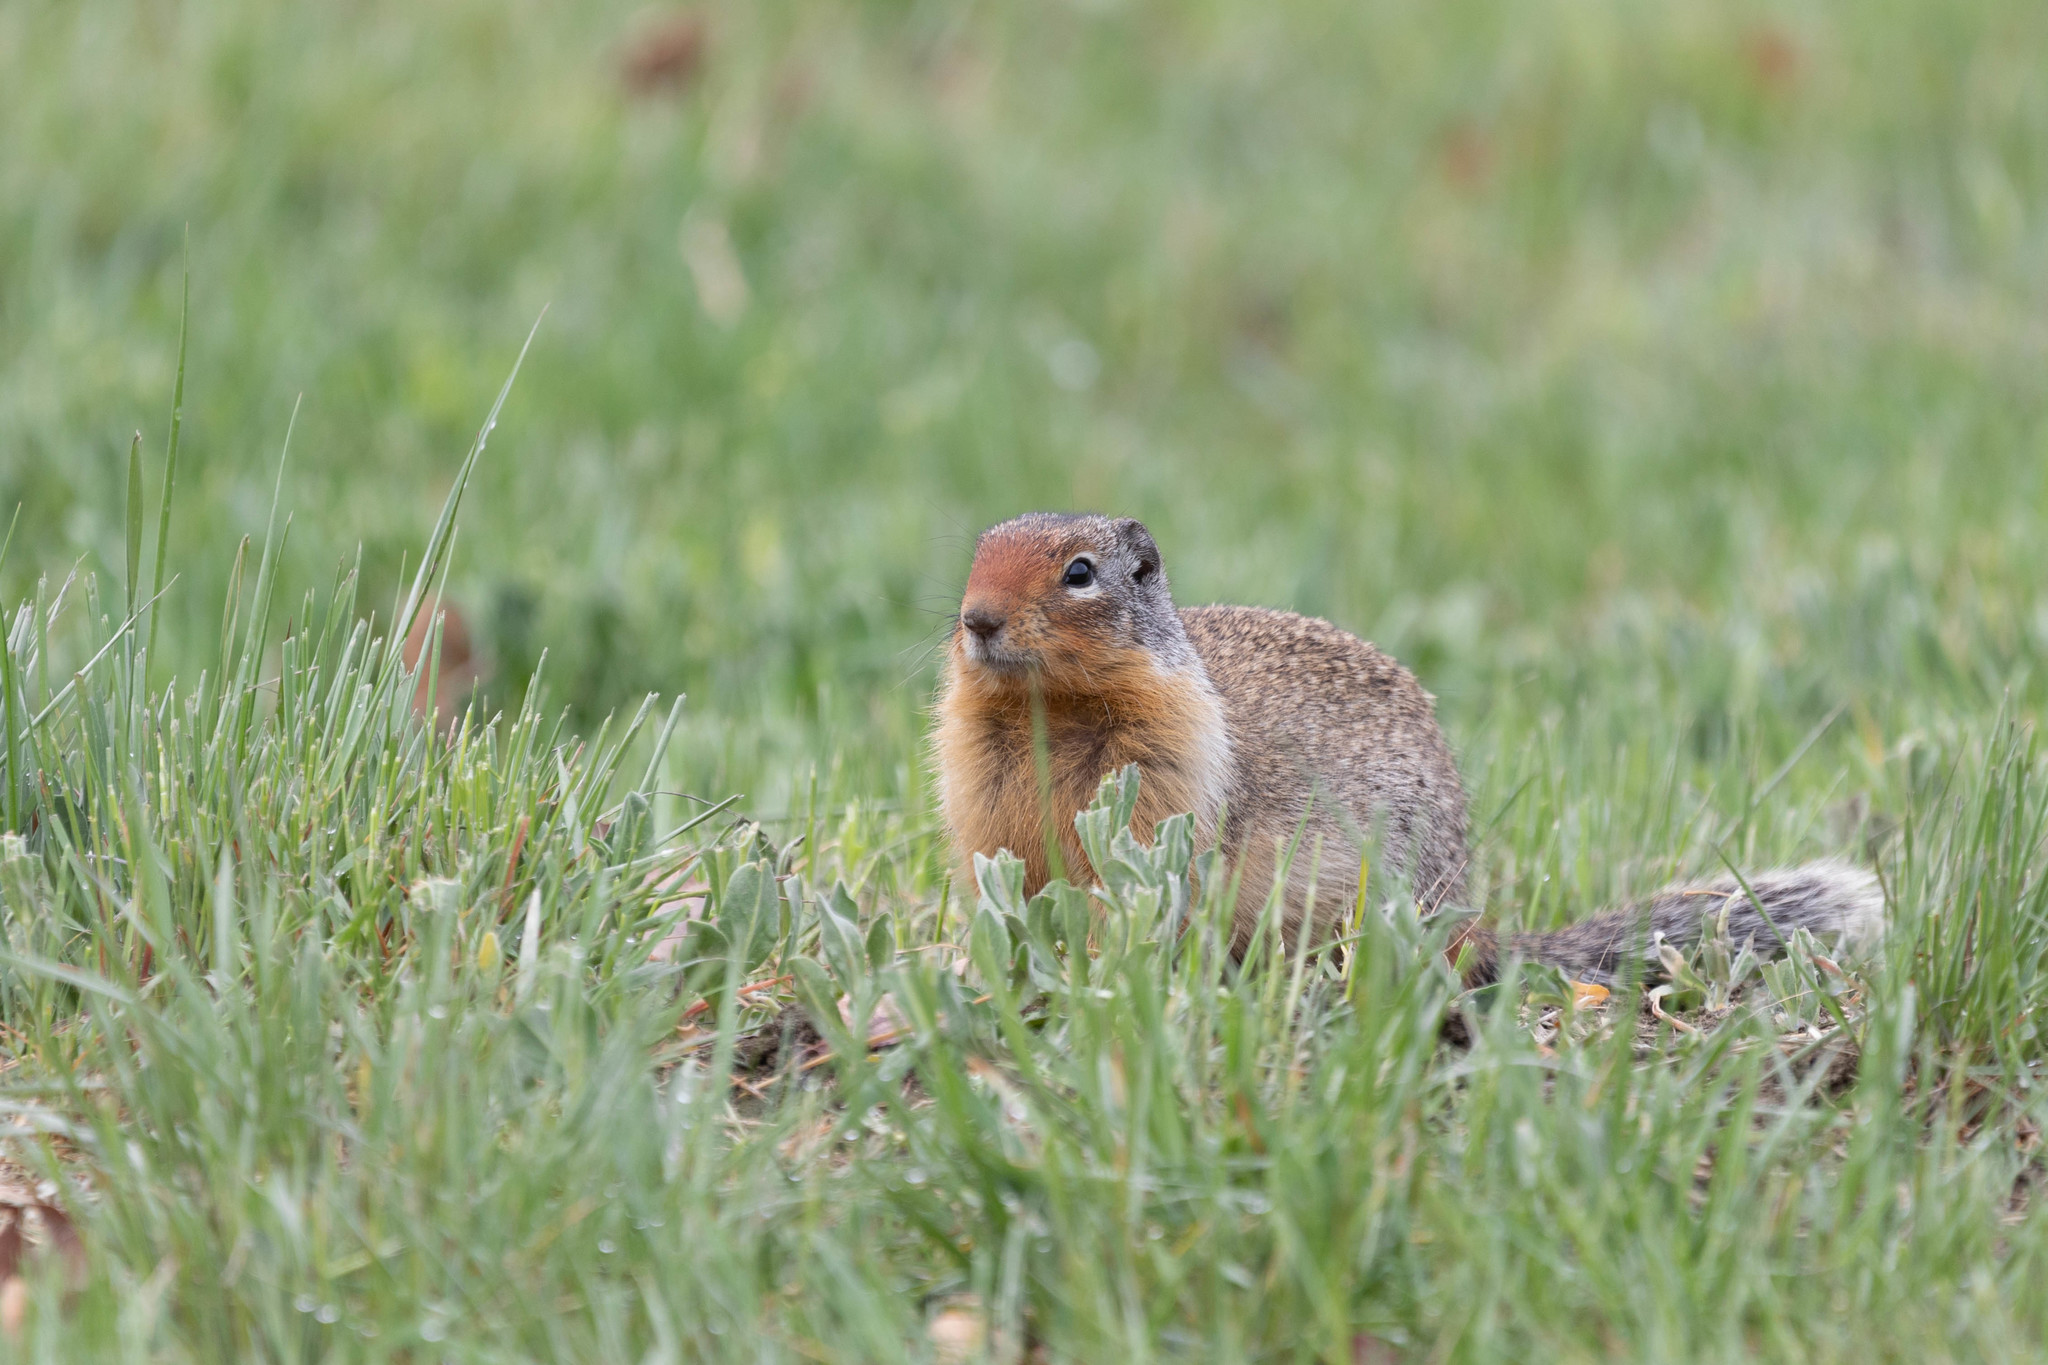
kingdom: Animalia
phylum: Chordata
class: Mammalia
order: Rodentia
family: Sciuridae
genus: Urocitellus
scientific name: Urocitellus columbianus
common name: Columbian ground squirrel
